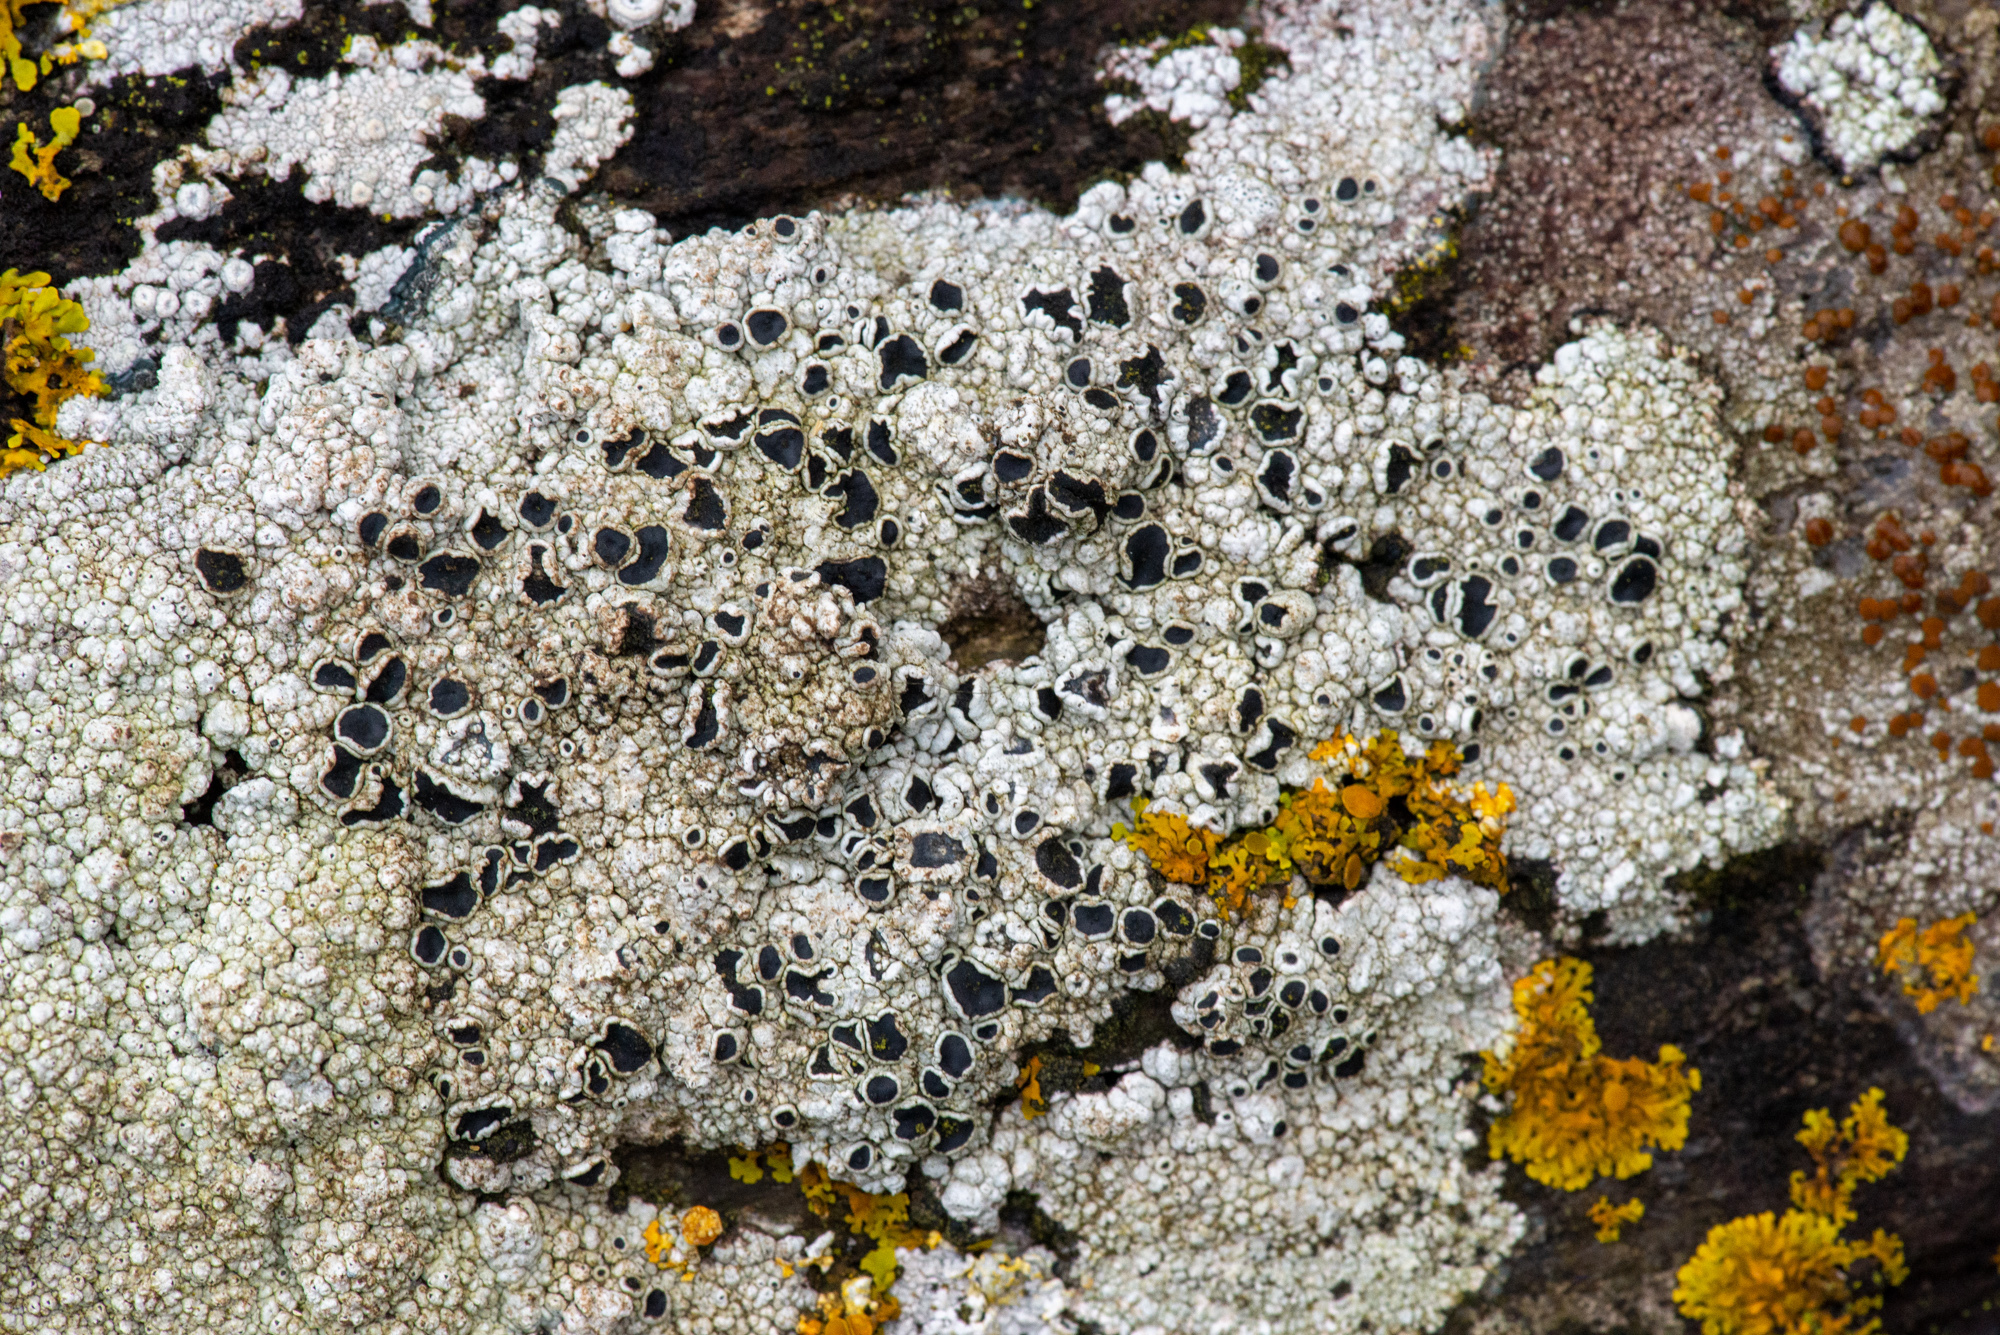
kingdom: Fungi
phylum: Ascomycota
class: Lecanoromycetes
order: Lecanorales
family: Tephromelataceae
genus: Tephromela
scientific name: Tephromela atra
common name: Black shields
